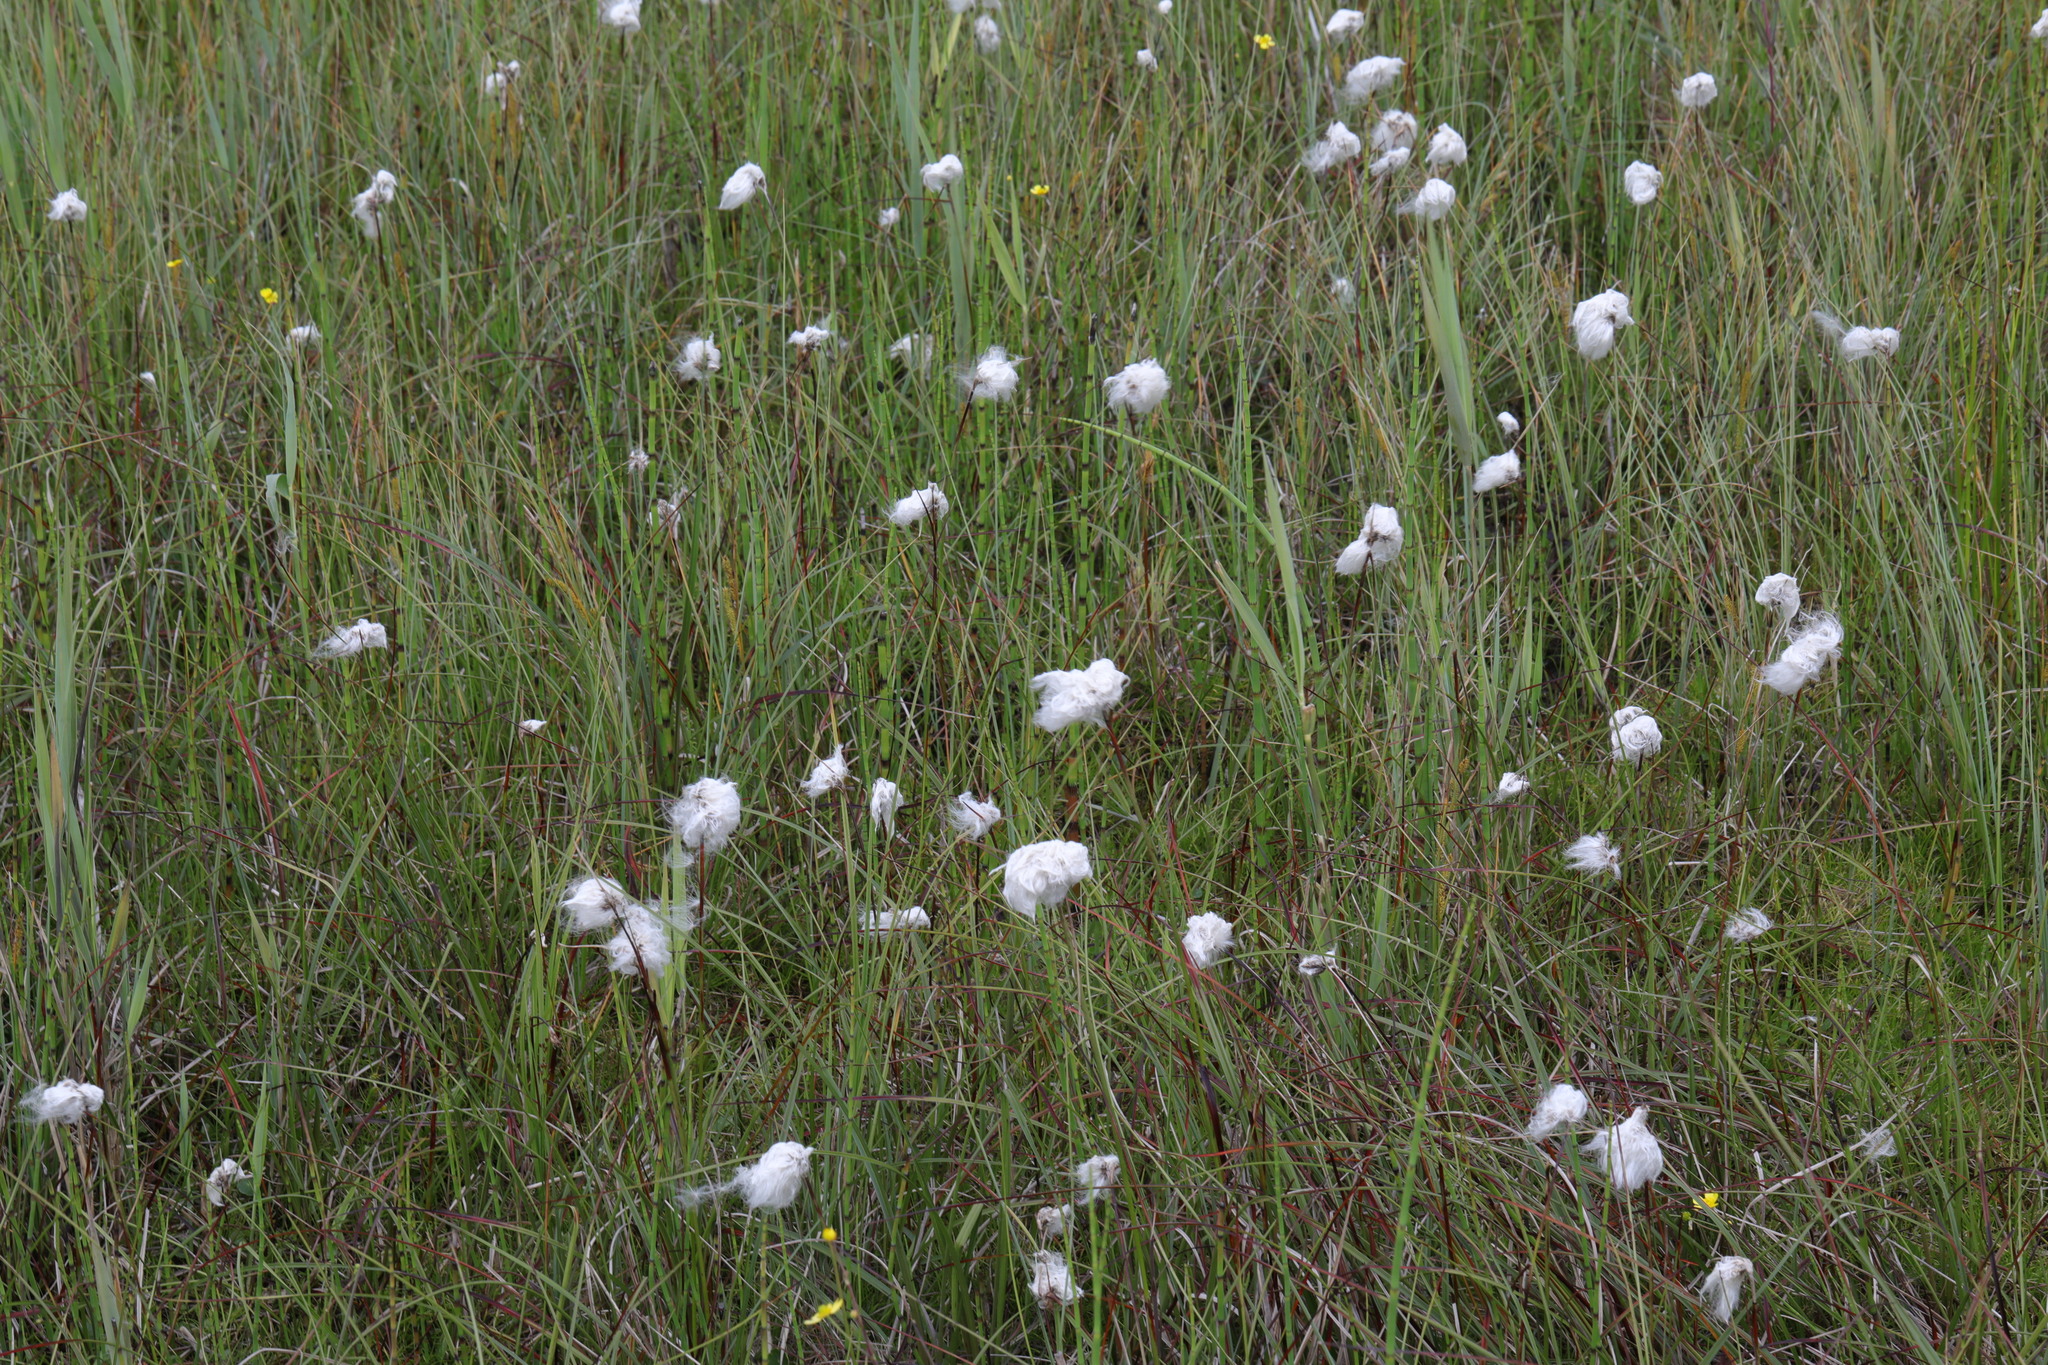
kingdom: Plantae
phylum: Tracheophyta
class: Liliopsida
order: Poales
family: Cyperaceae
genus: Eriophorum
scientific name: Eriophorum angustifolium
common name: Common cottongrass
